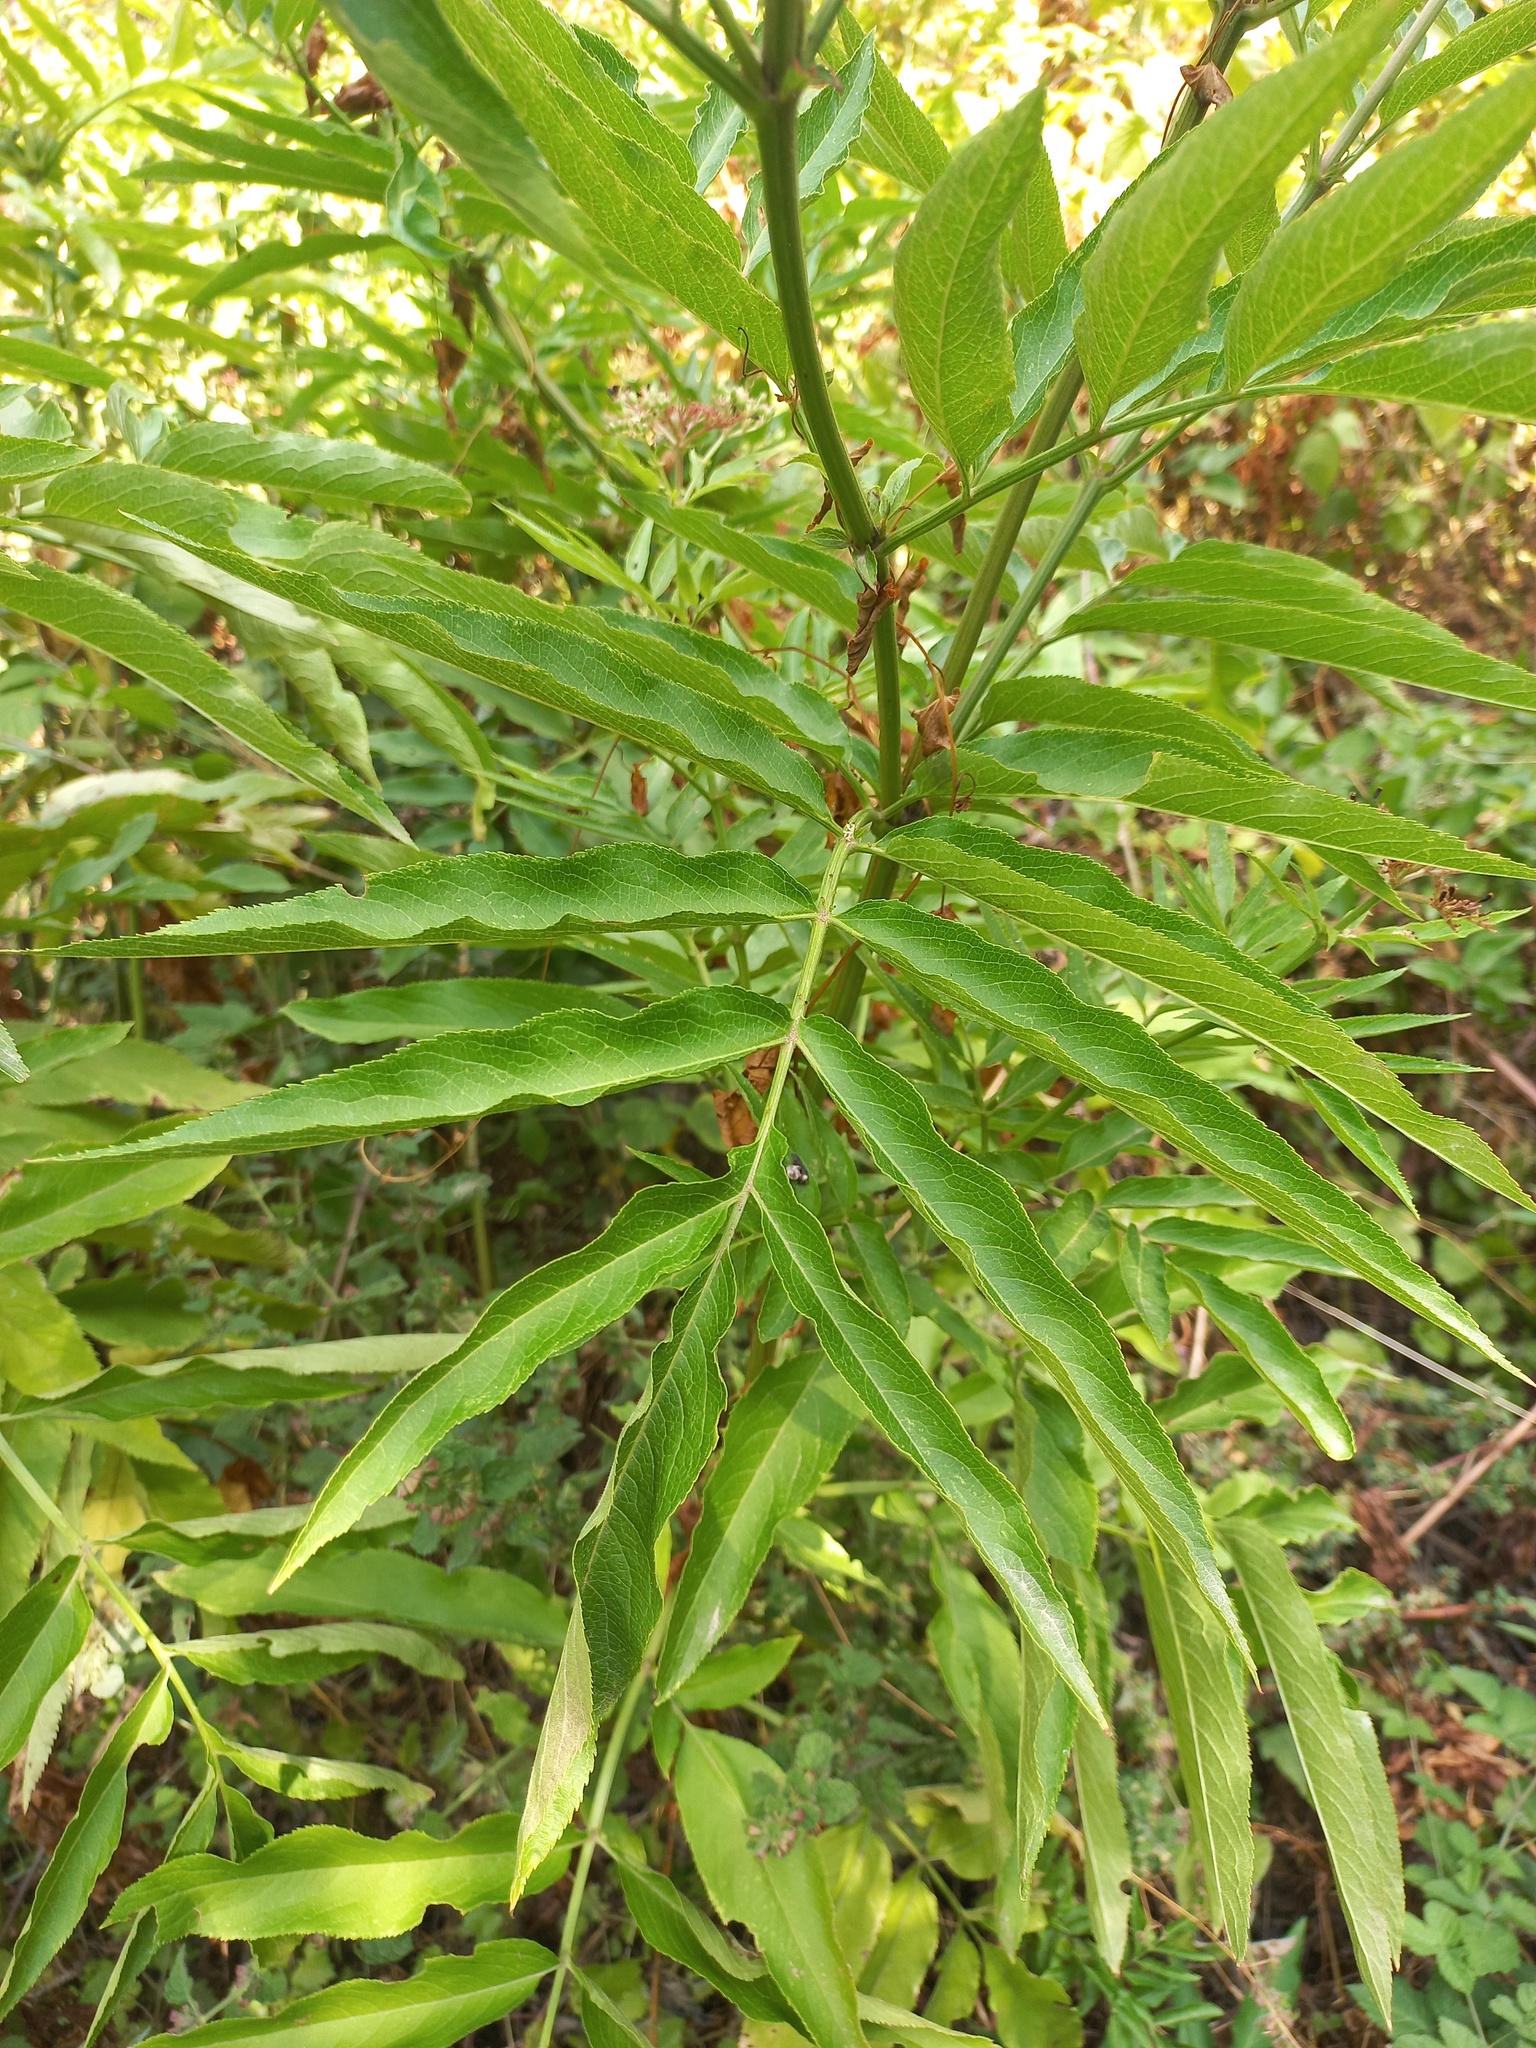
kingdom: Plantae
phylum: Tracheophyta
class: Magnoliopsida
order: Dipsacales
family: Viburnaceae
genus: Sambucus
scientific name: Sambucus ebulus
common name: Dwarf elder
